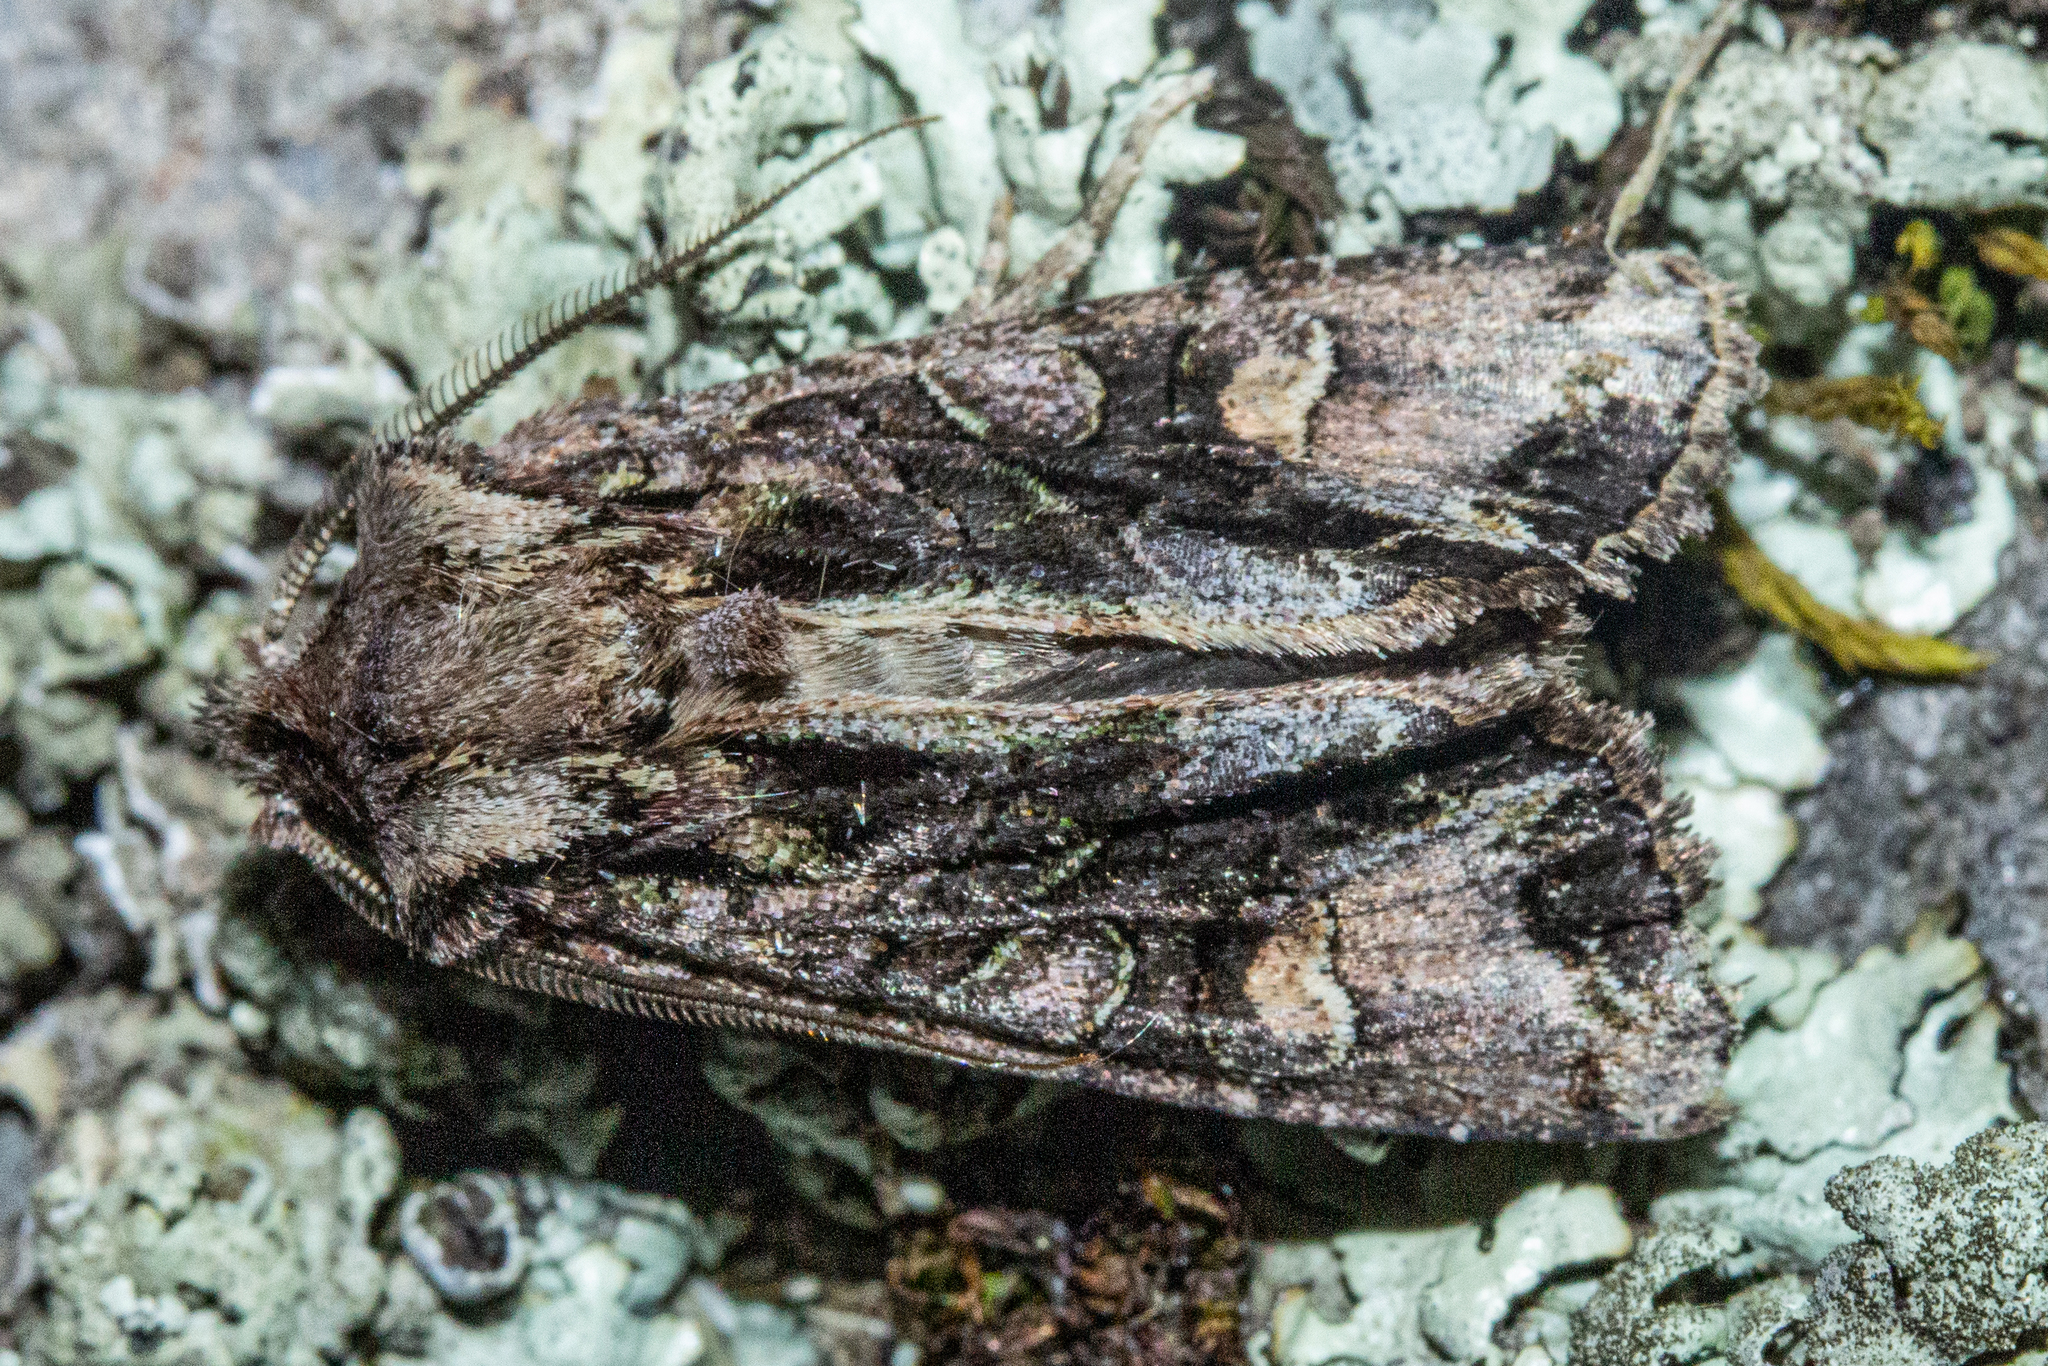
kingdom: Animalia
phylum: Arthropoda
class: Insecta
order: Lepidoptera
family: Noctuidae
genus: Ichneutica
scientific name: Ichneutica skelloni
